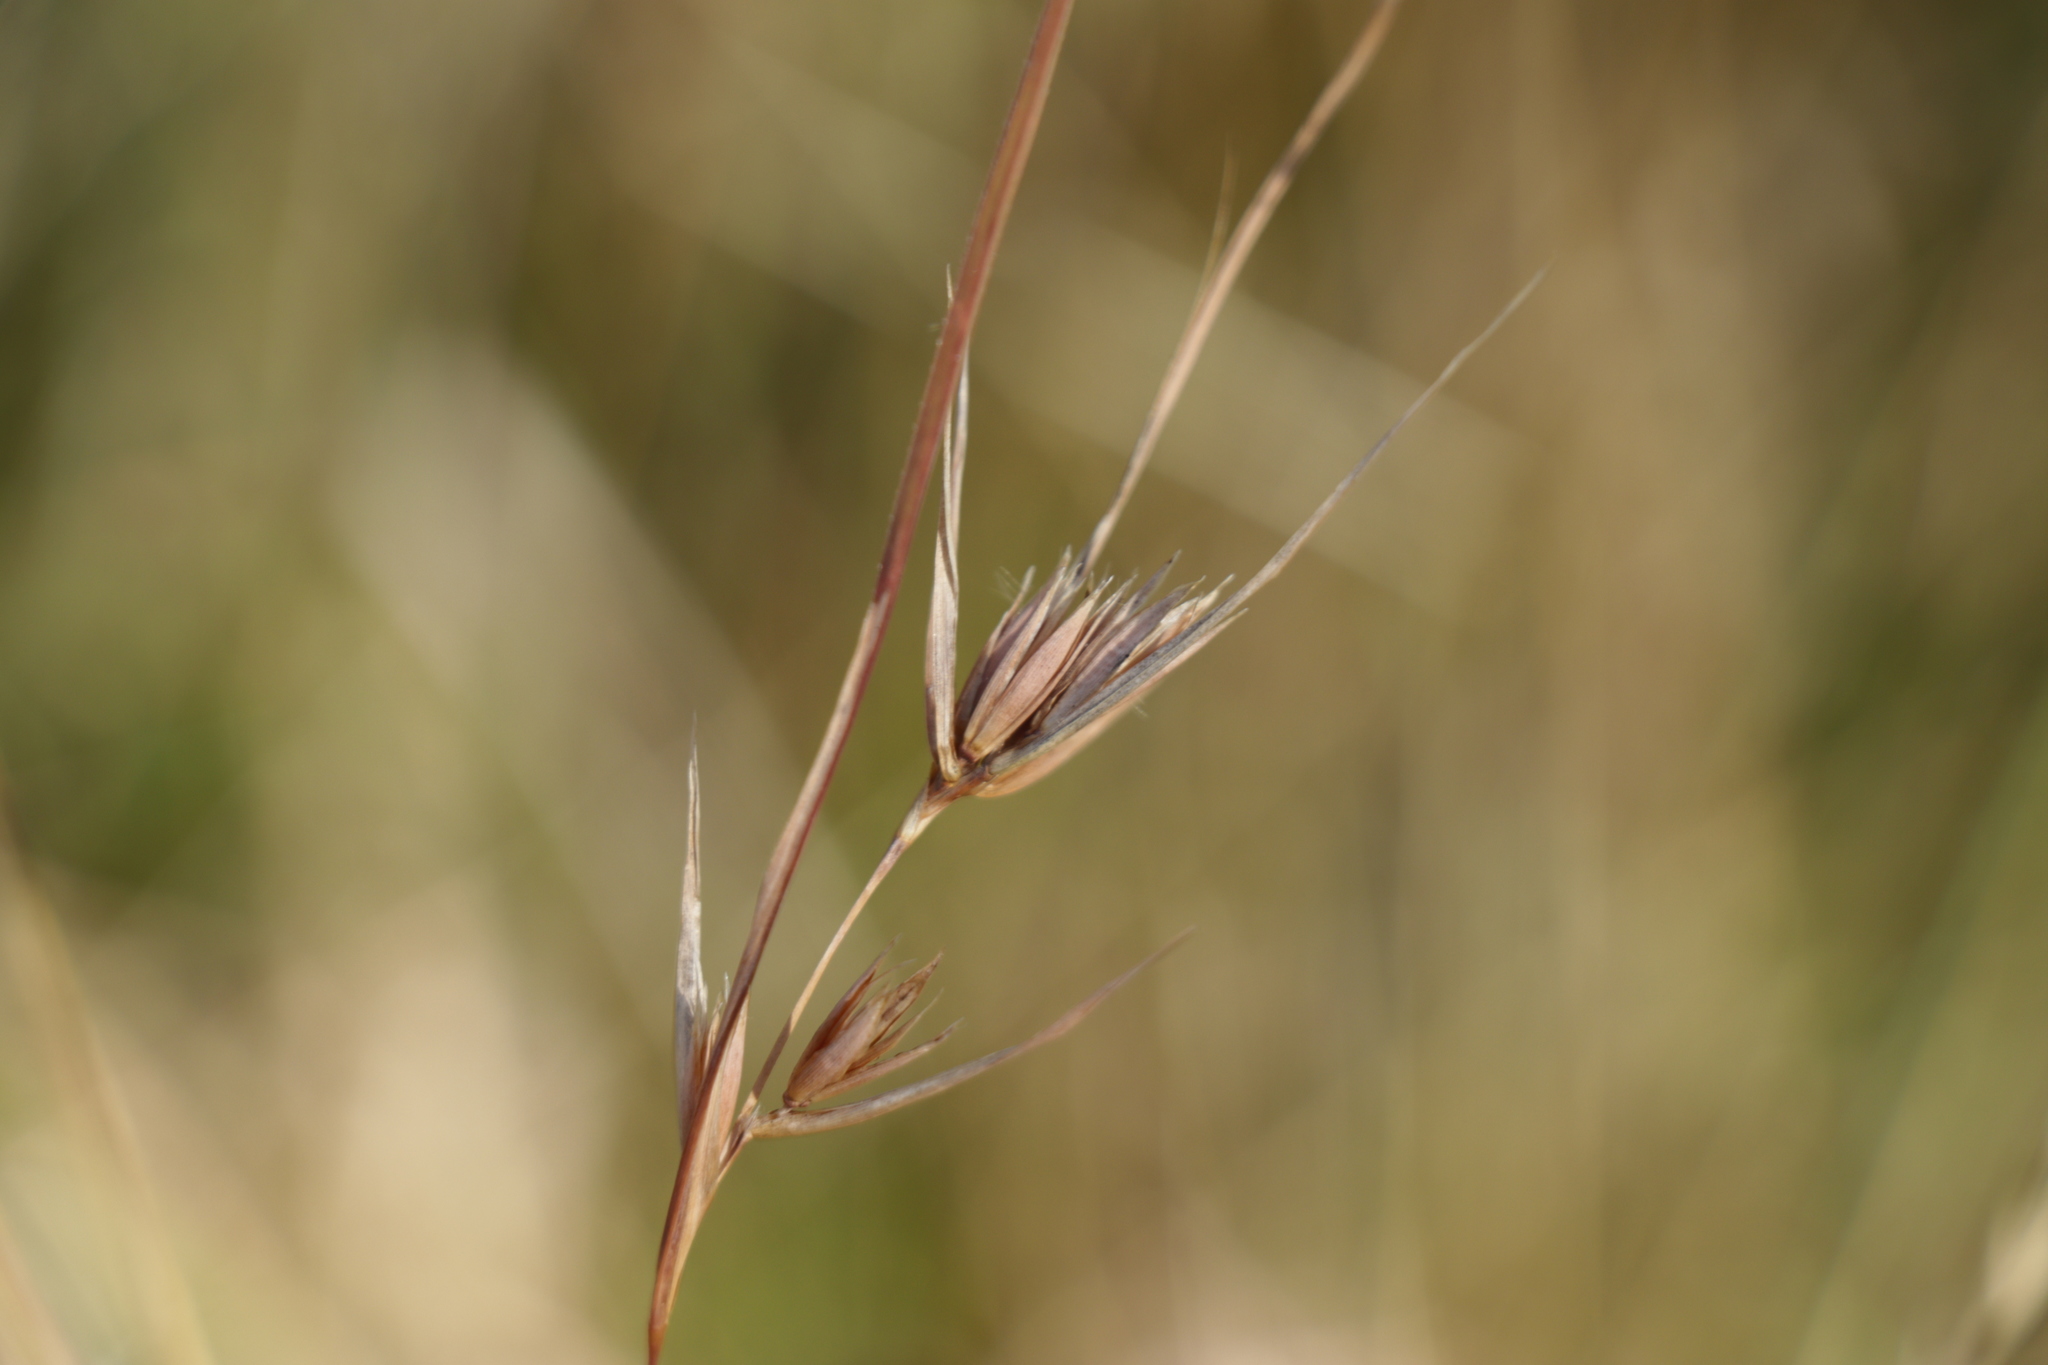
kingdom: Plantae
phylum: Tracheophyta
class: Liliopsida
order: Poales
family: Poaceae
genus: Themeda
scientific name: Themeda triandra
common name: Kangaroo grass
